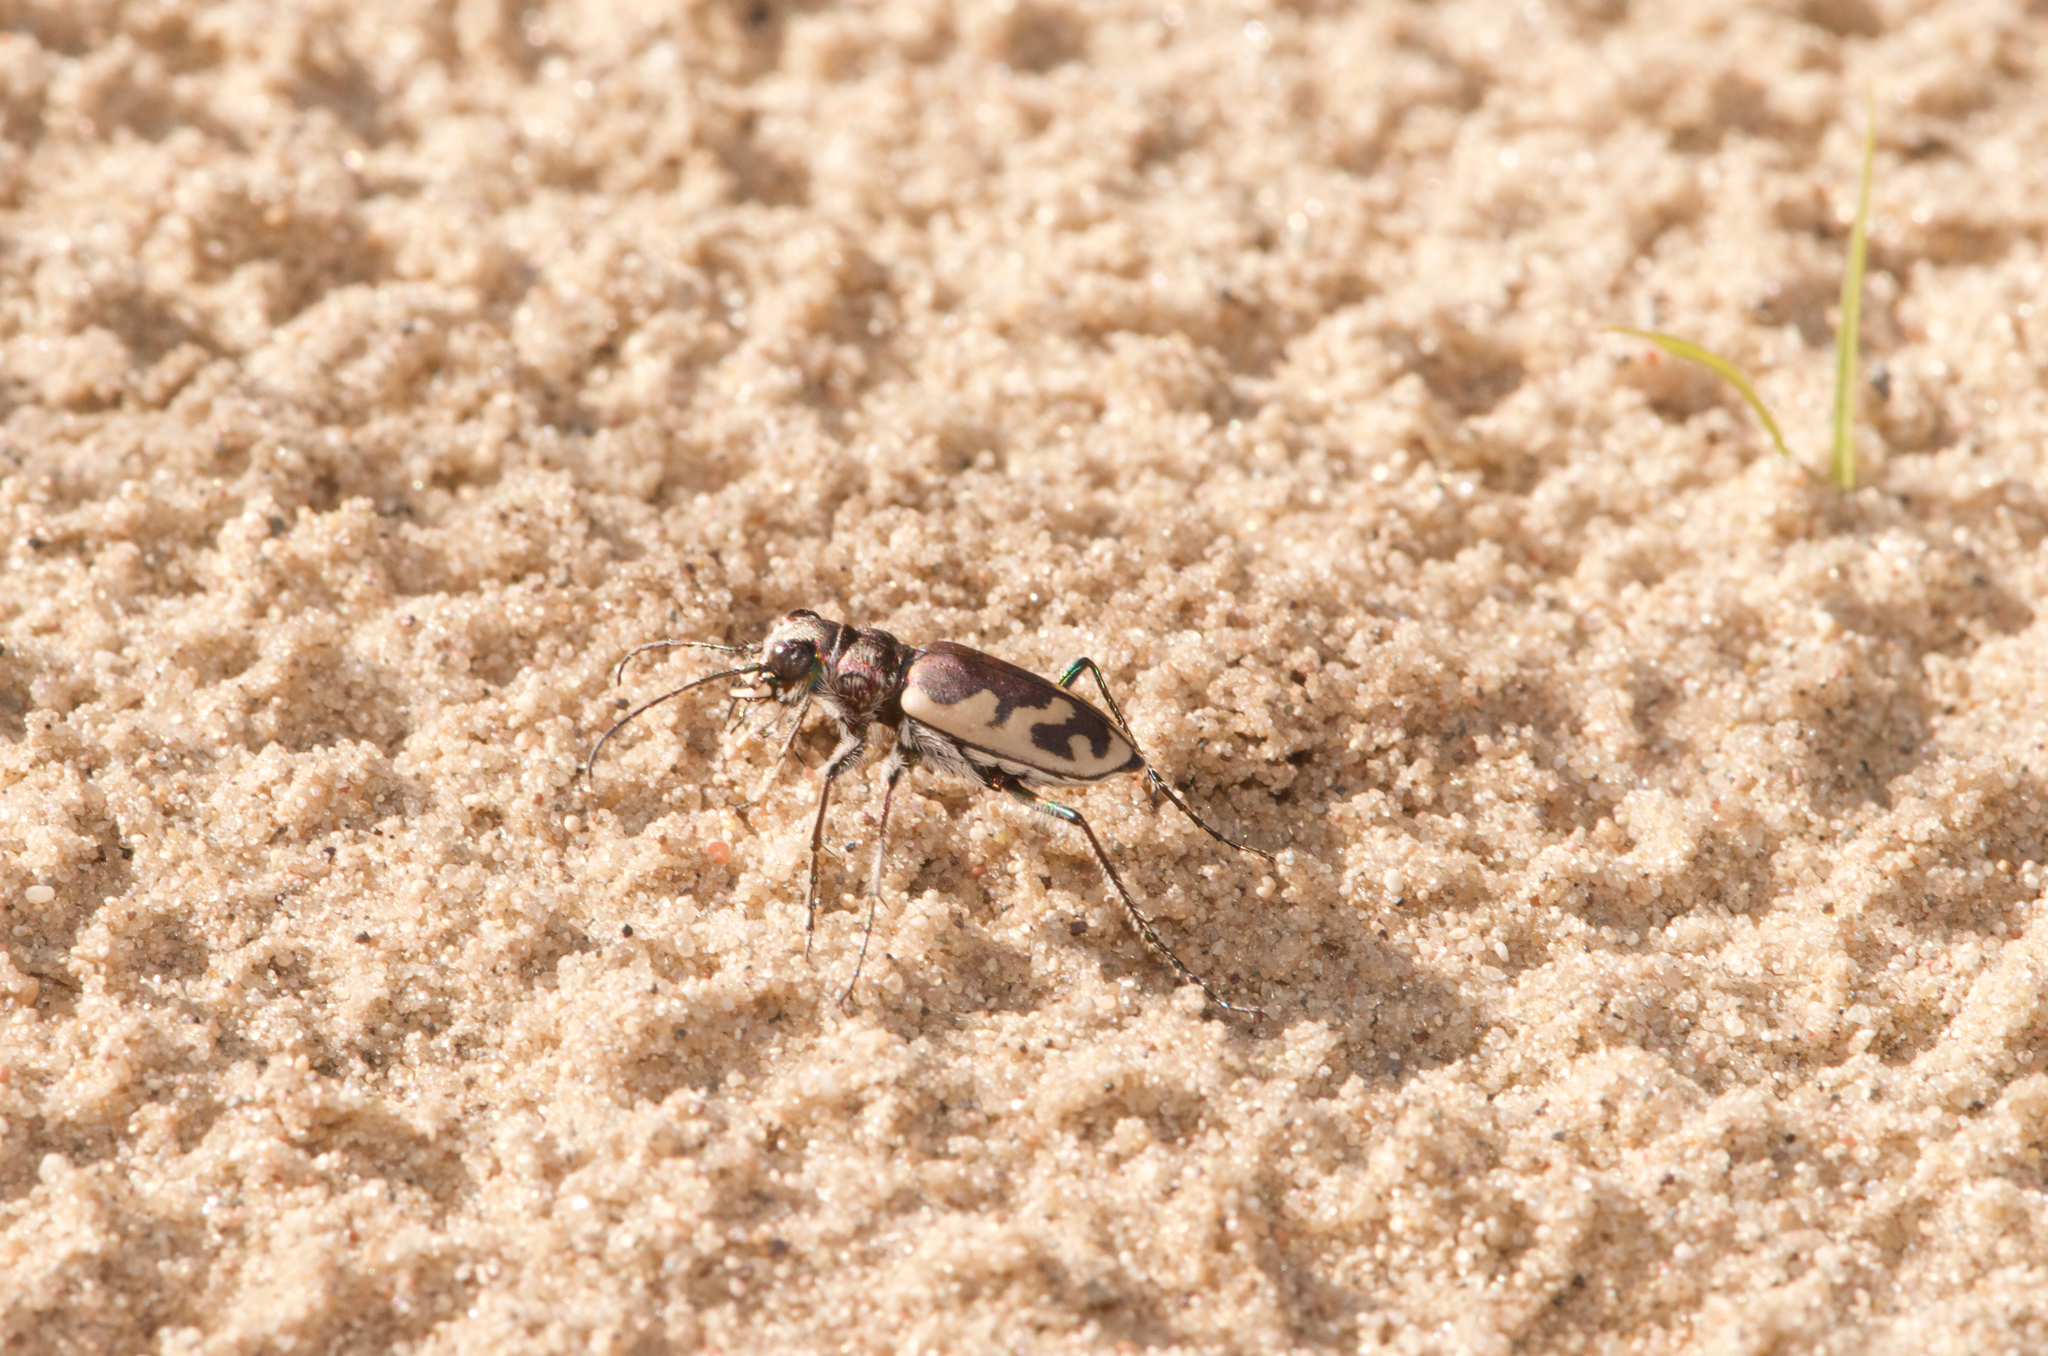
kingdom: Animalia
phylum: Arthropoda
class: Insecta
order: Coleoptera
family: Carabidae
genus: Cicindela
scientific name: Cicindela formosa
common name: Big sand tiger beetle
